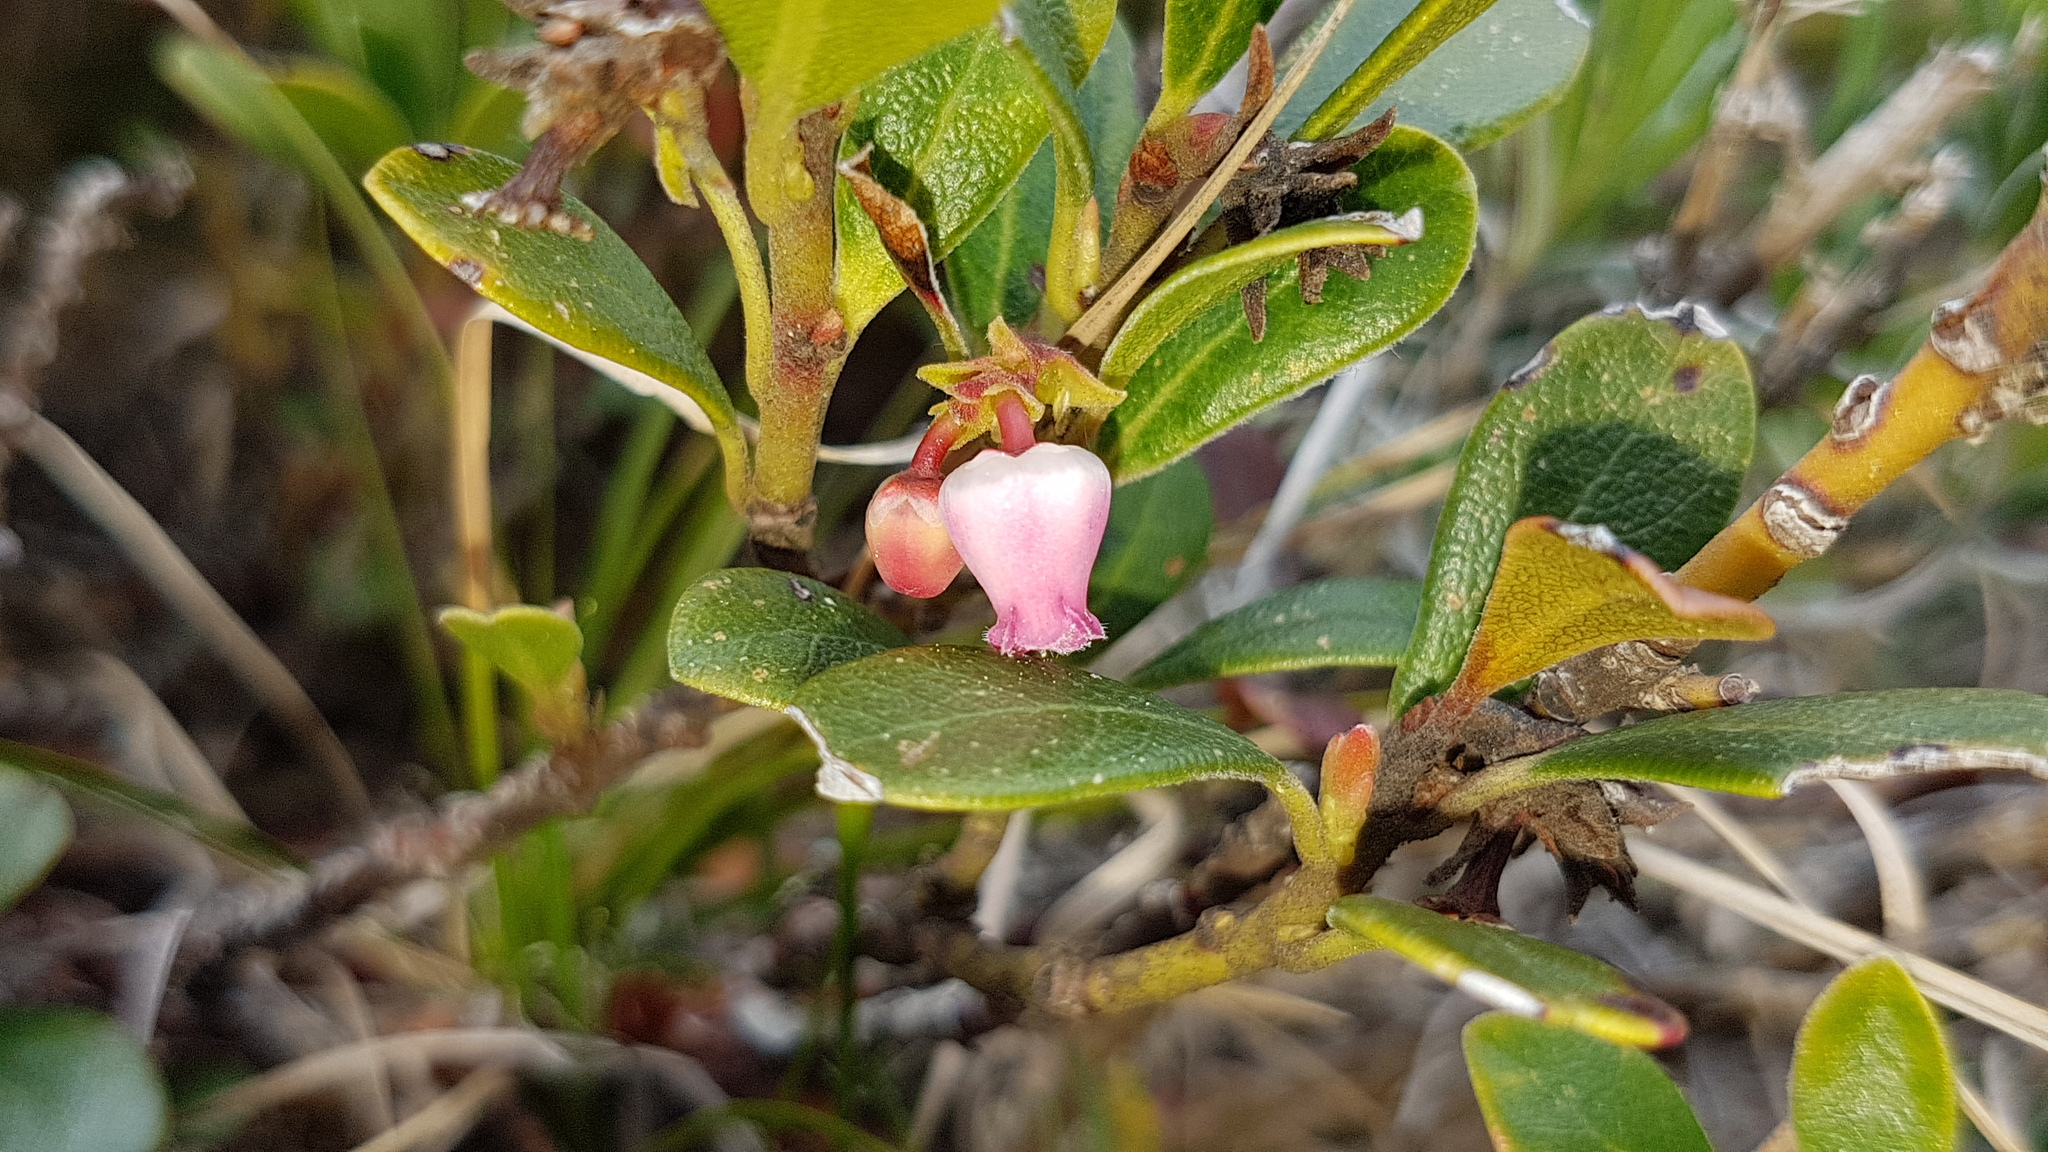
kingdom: Plantae
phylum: Tracheophyta
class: Magnoliopsida
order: Ericales
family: Ericaceae
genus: Arctostaphylos
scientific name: Arctostaphylos uva-ursi
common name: Bearberry
